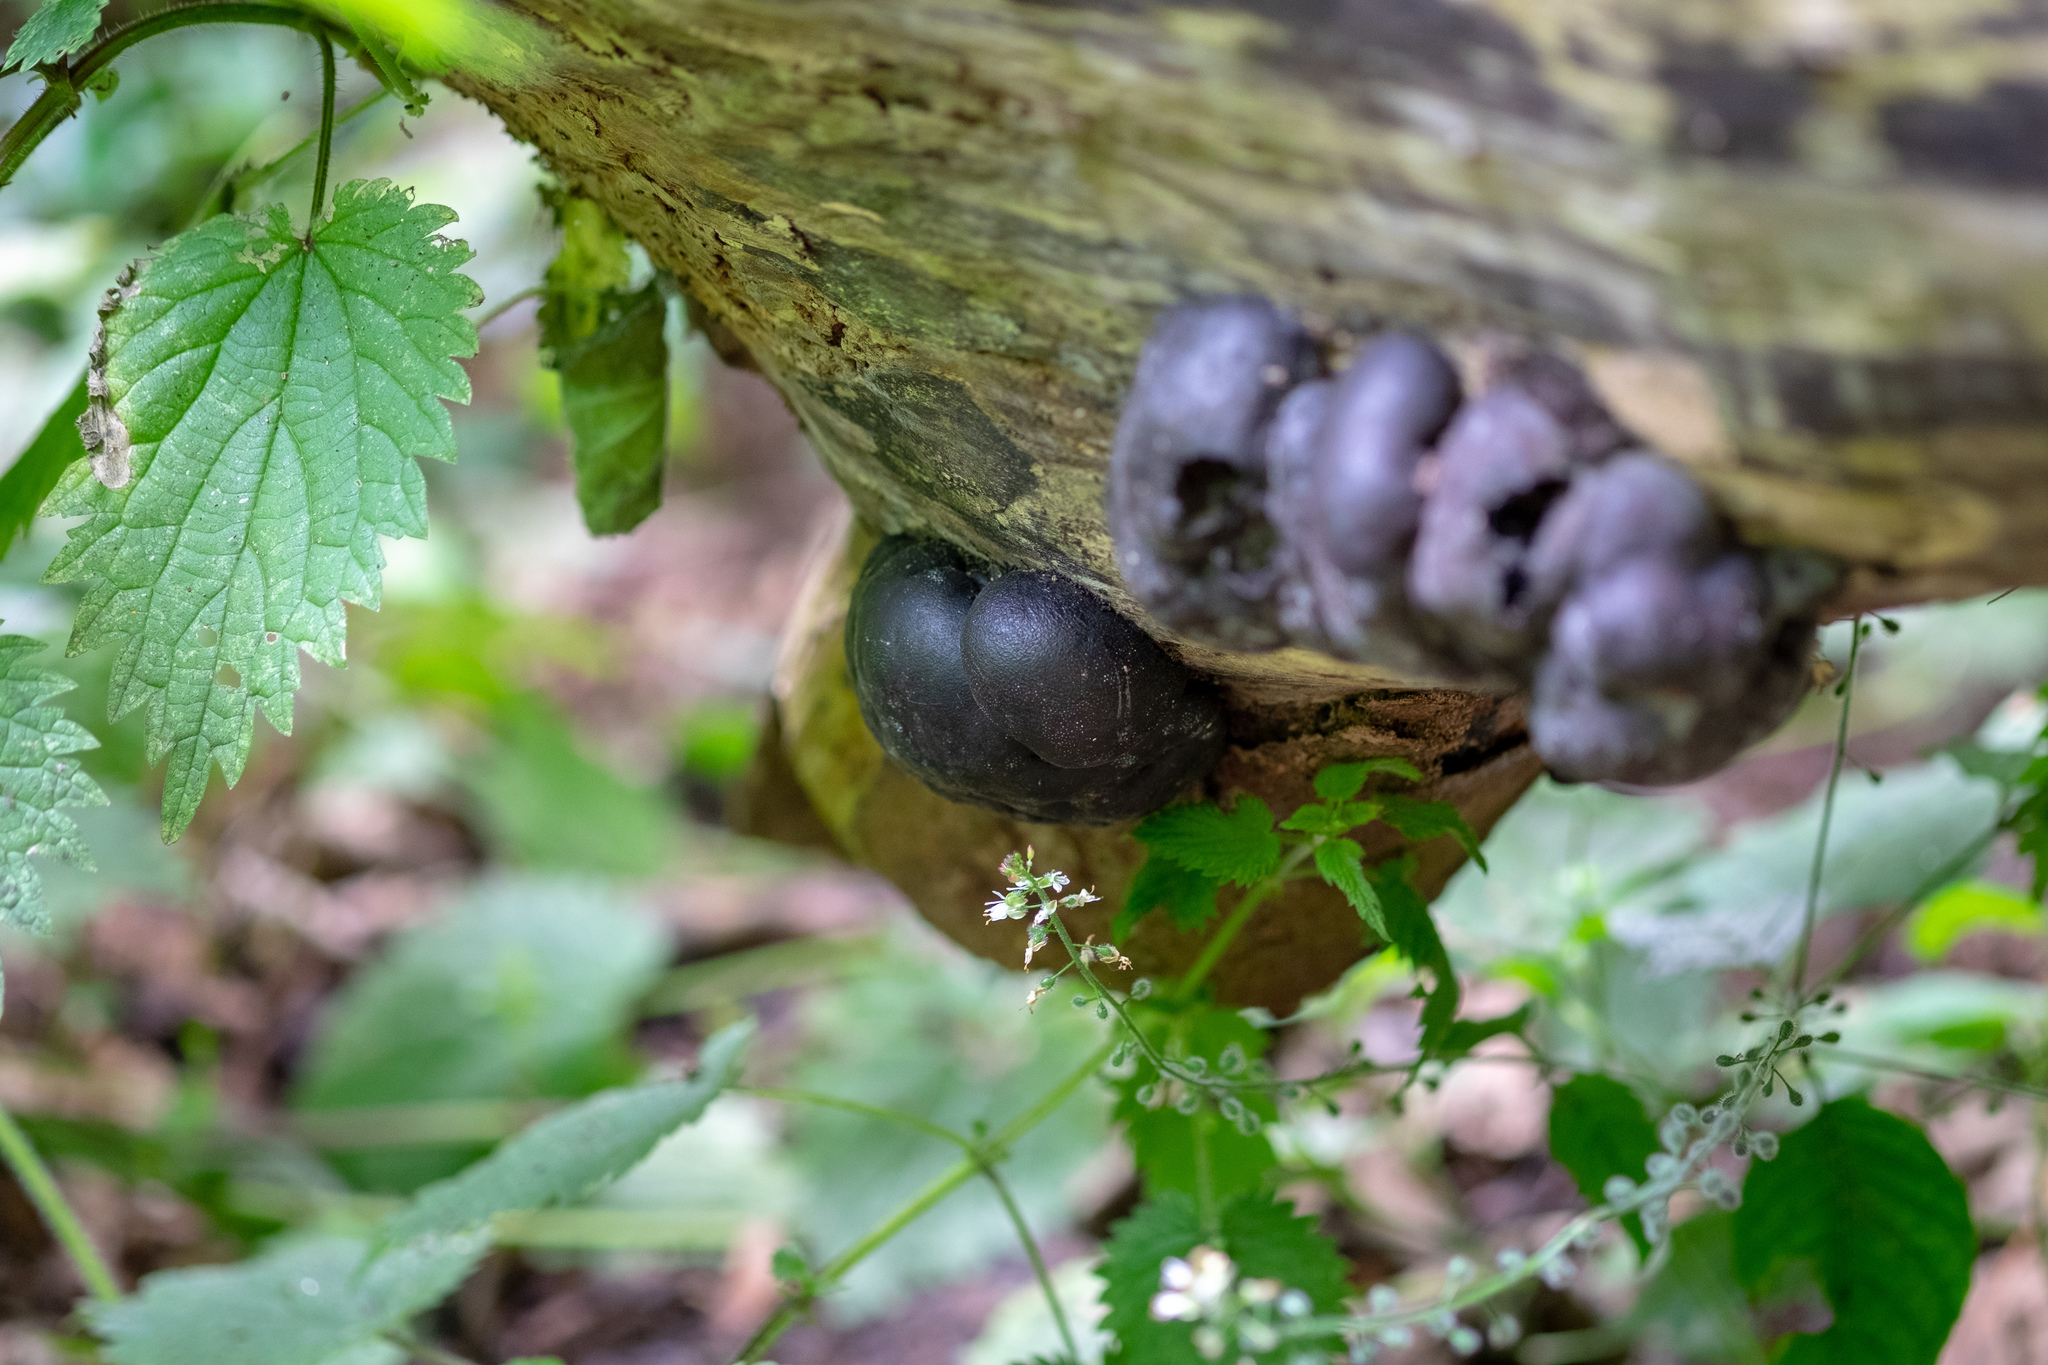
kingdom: Fungi
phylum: Ascomycota
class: Sordariomycetes
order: Xylariales
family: Hypoxylaceae
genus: Daldinia
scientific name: Daldinia concentrica
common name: Cramp balls
